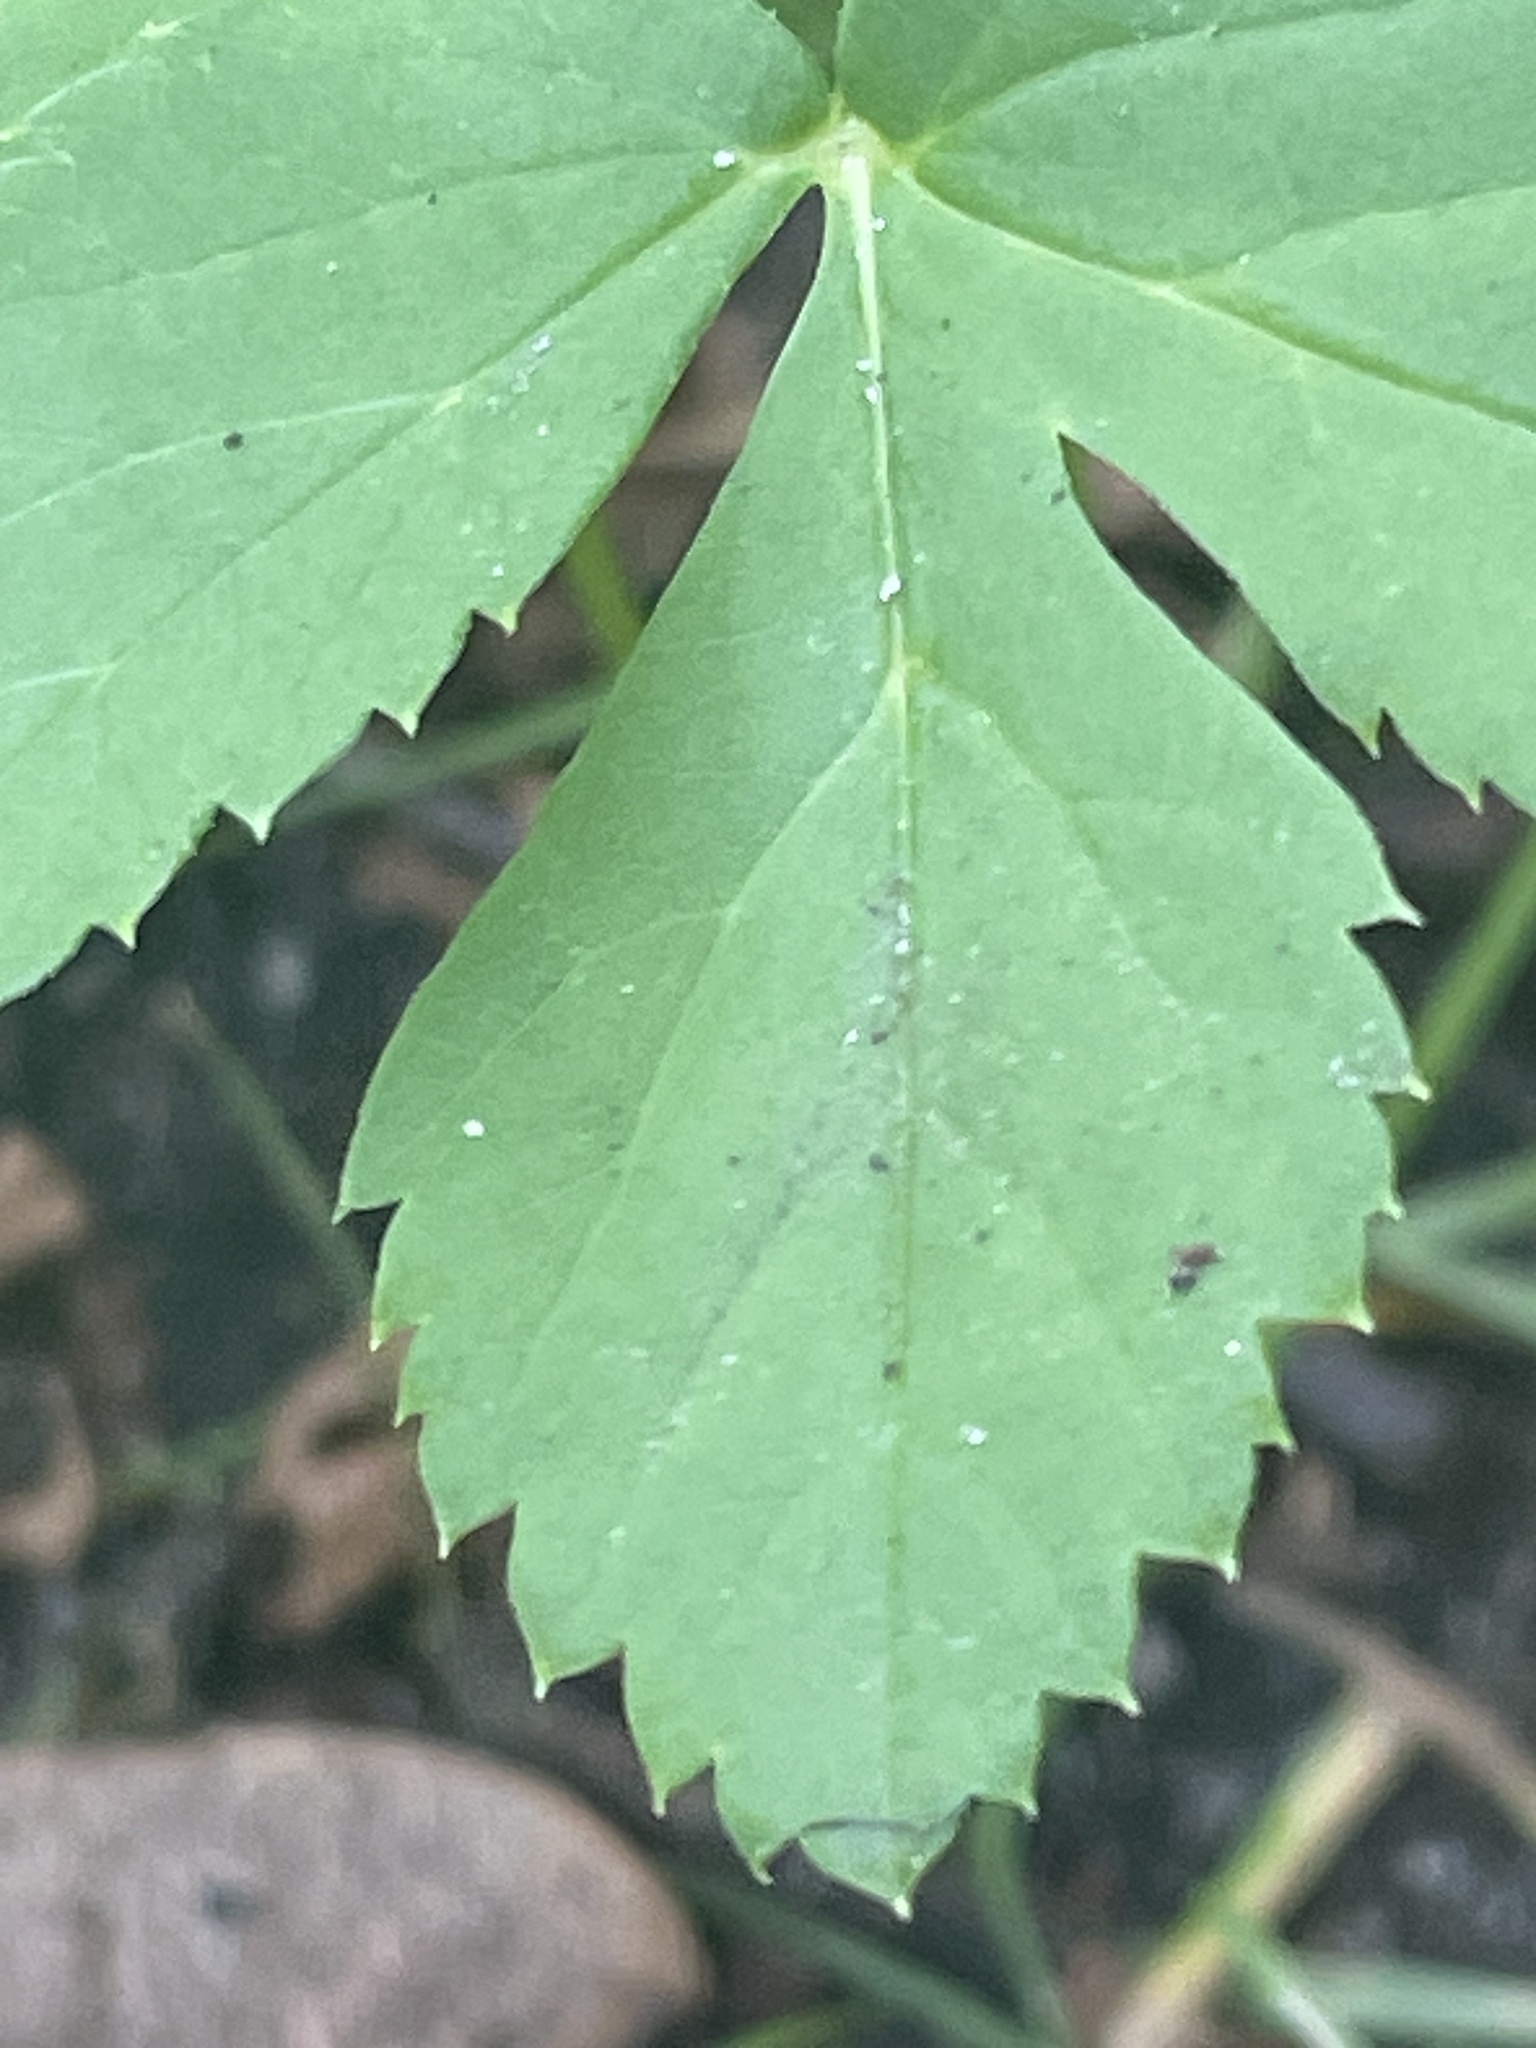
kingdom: Plantae
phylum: Tracheophyta
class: Magnoliopsida
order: Apiales
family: Apiaceae
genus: Aegopodium
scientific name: Aegopodium podagraria
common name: Ground-elder
